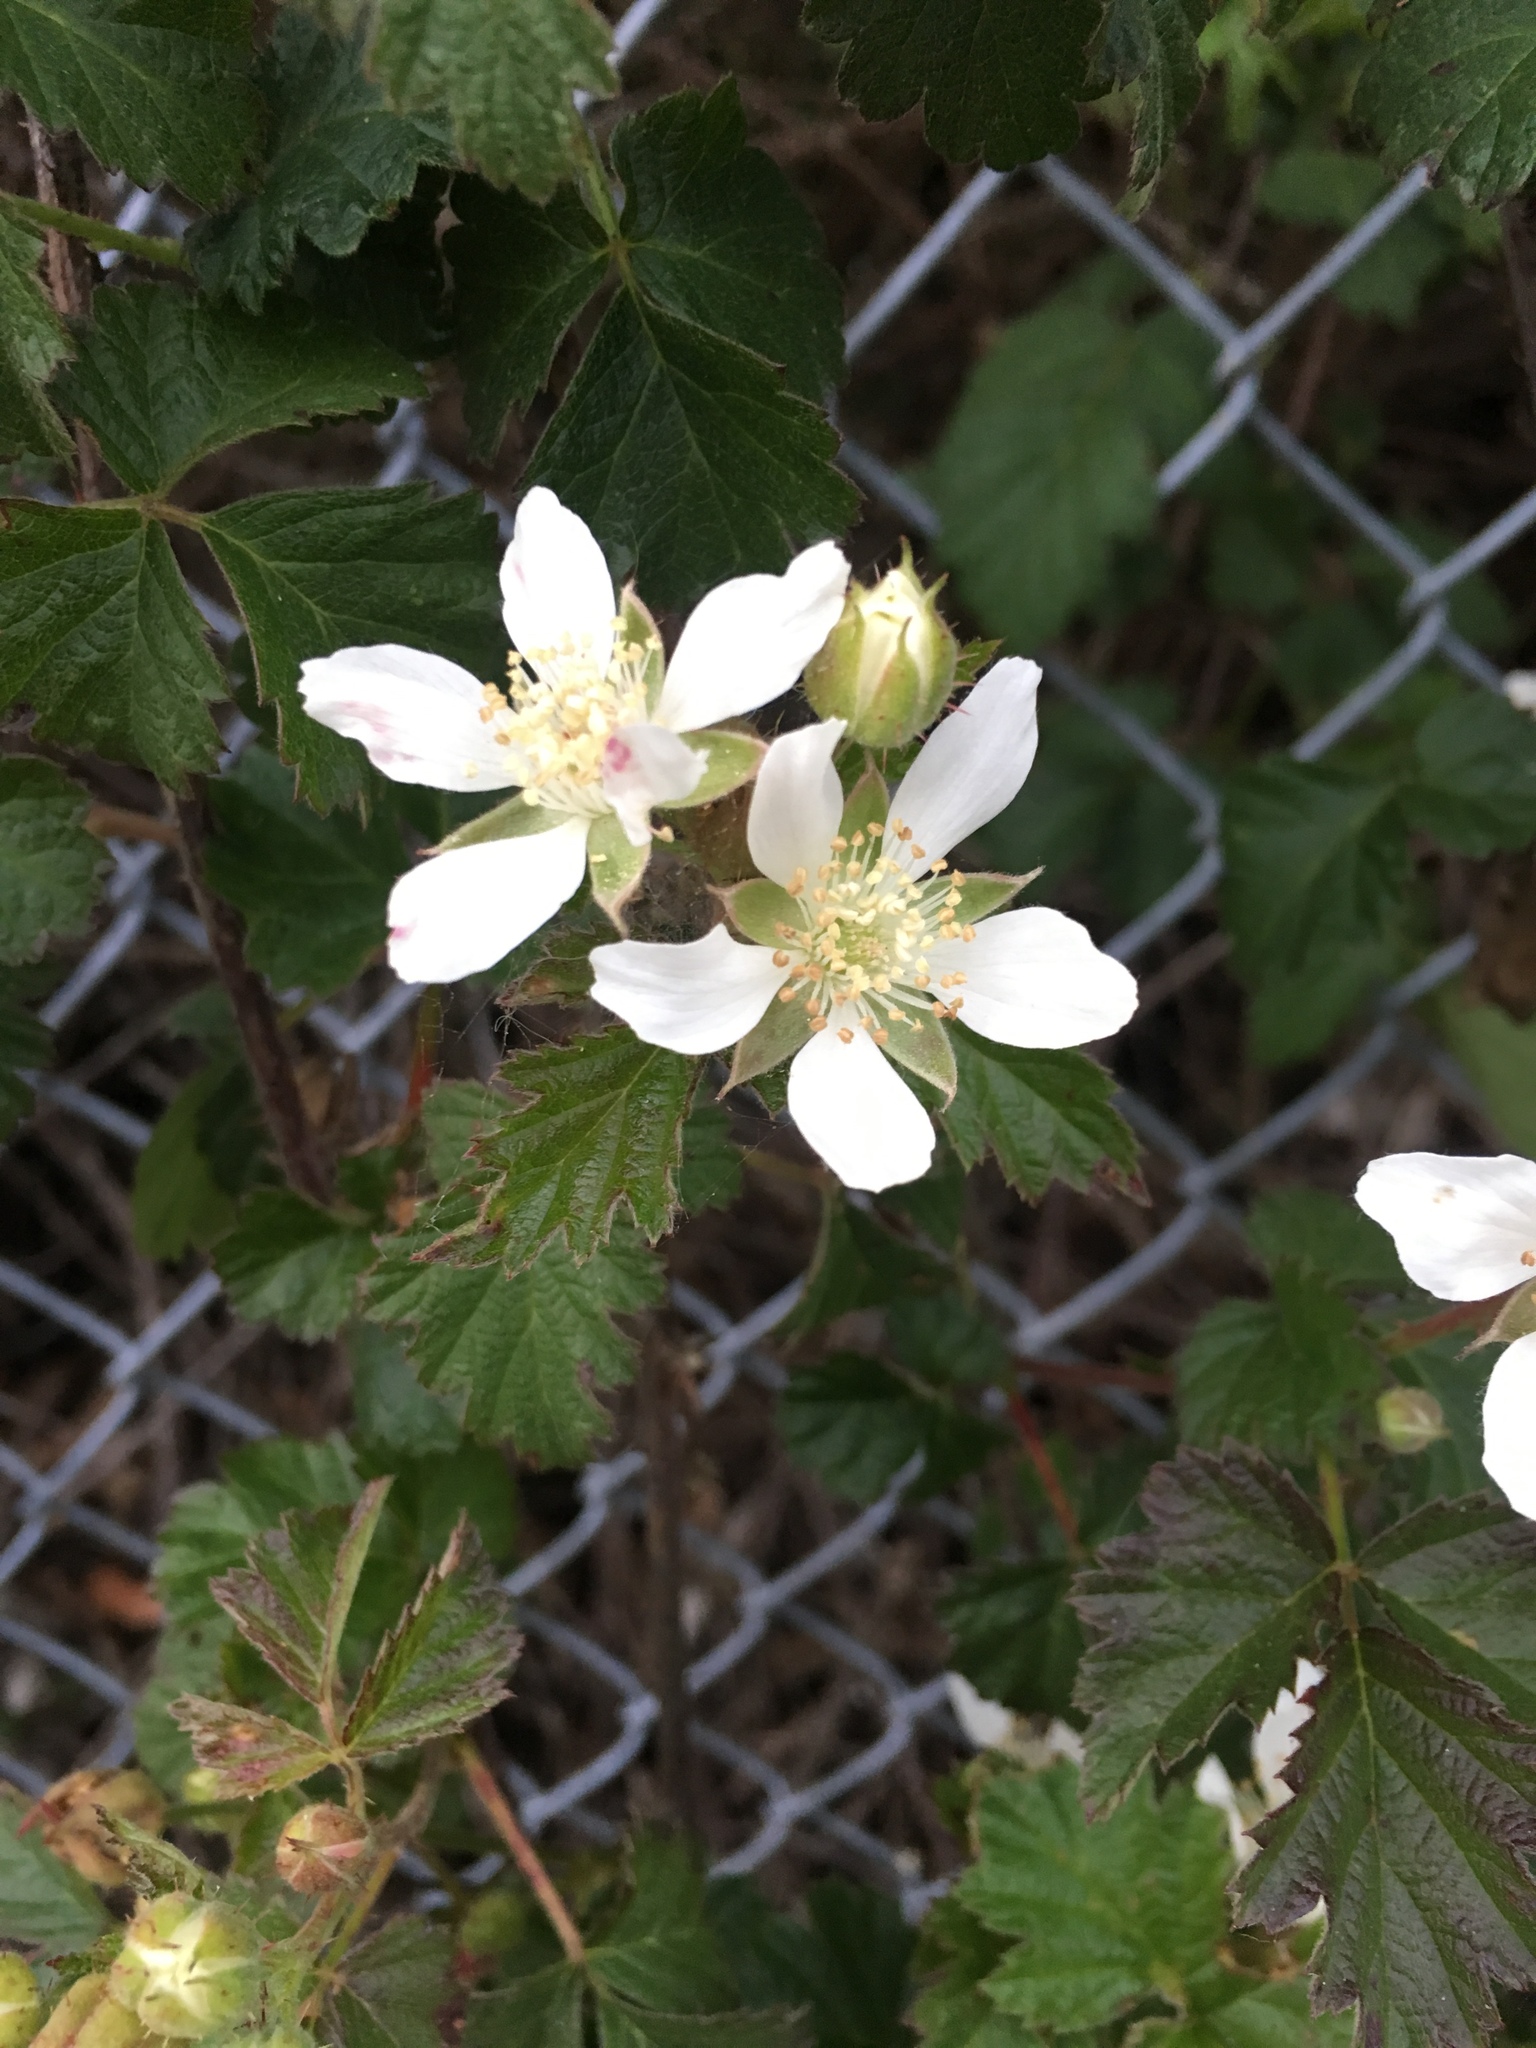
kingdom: Plantae
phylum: Tracheophyta
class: Magnoliopsida
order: Rosales
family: Rosaceae
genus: Rubus
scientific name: Rubus ursinus
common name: Pacific blackberry
